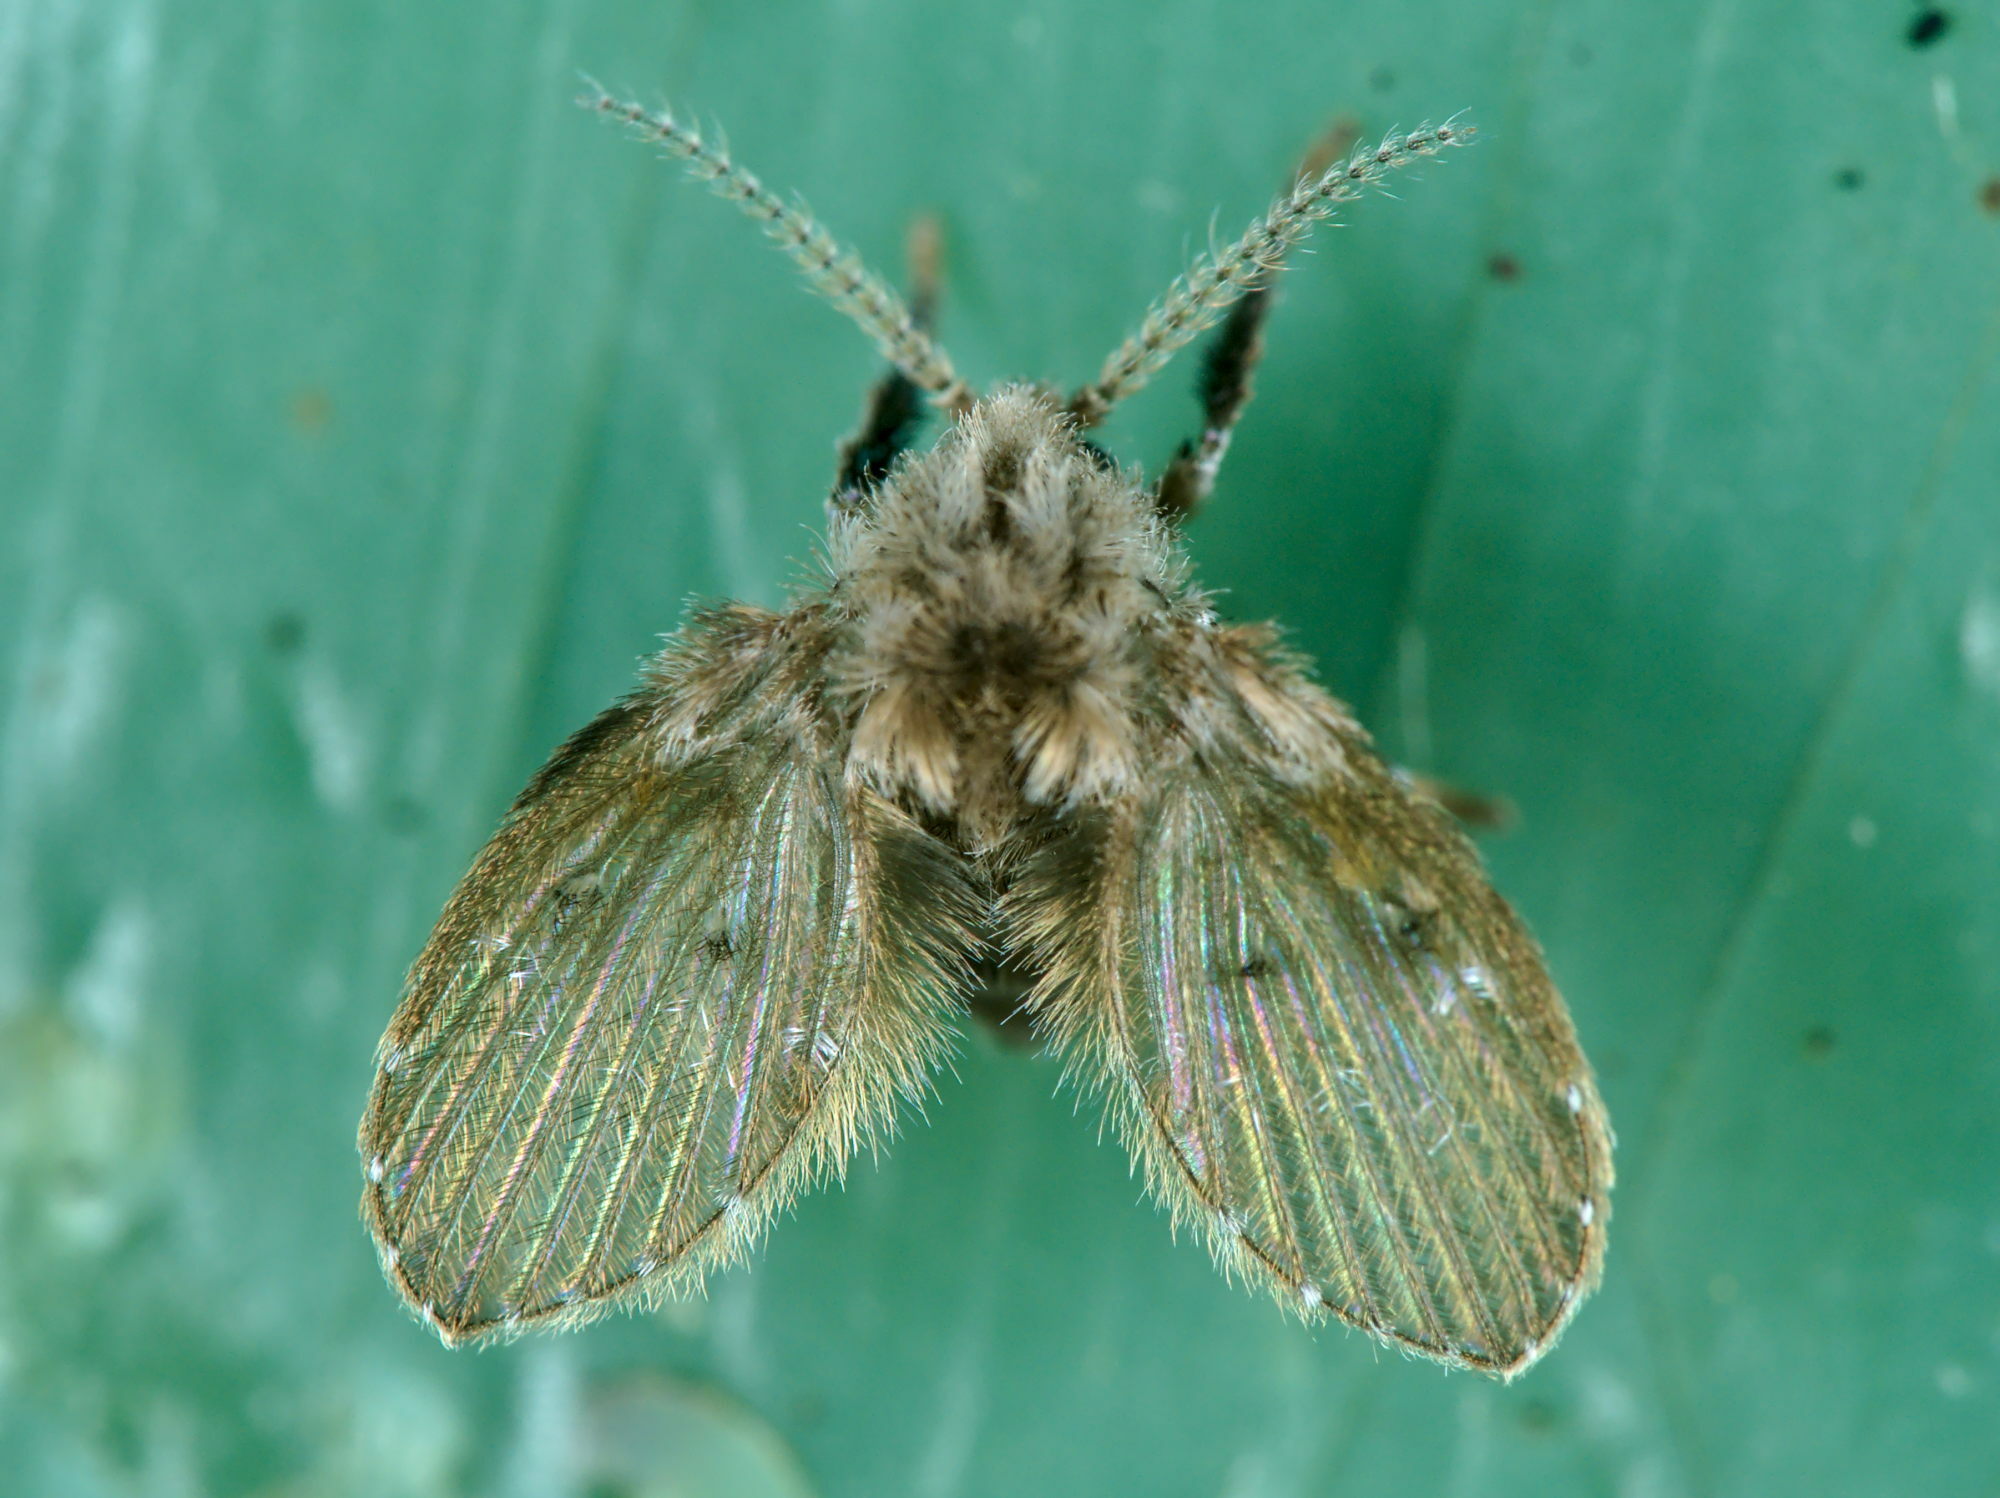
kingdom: Animalia
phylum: Arthropoda
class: Insecta
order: Diptera
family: Psychodidae
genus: Clogmia
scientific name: Clogmia albipunctatus
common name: White-spotted moth fly
